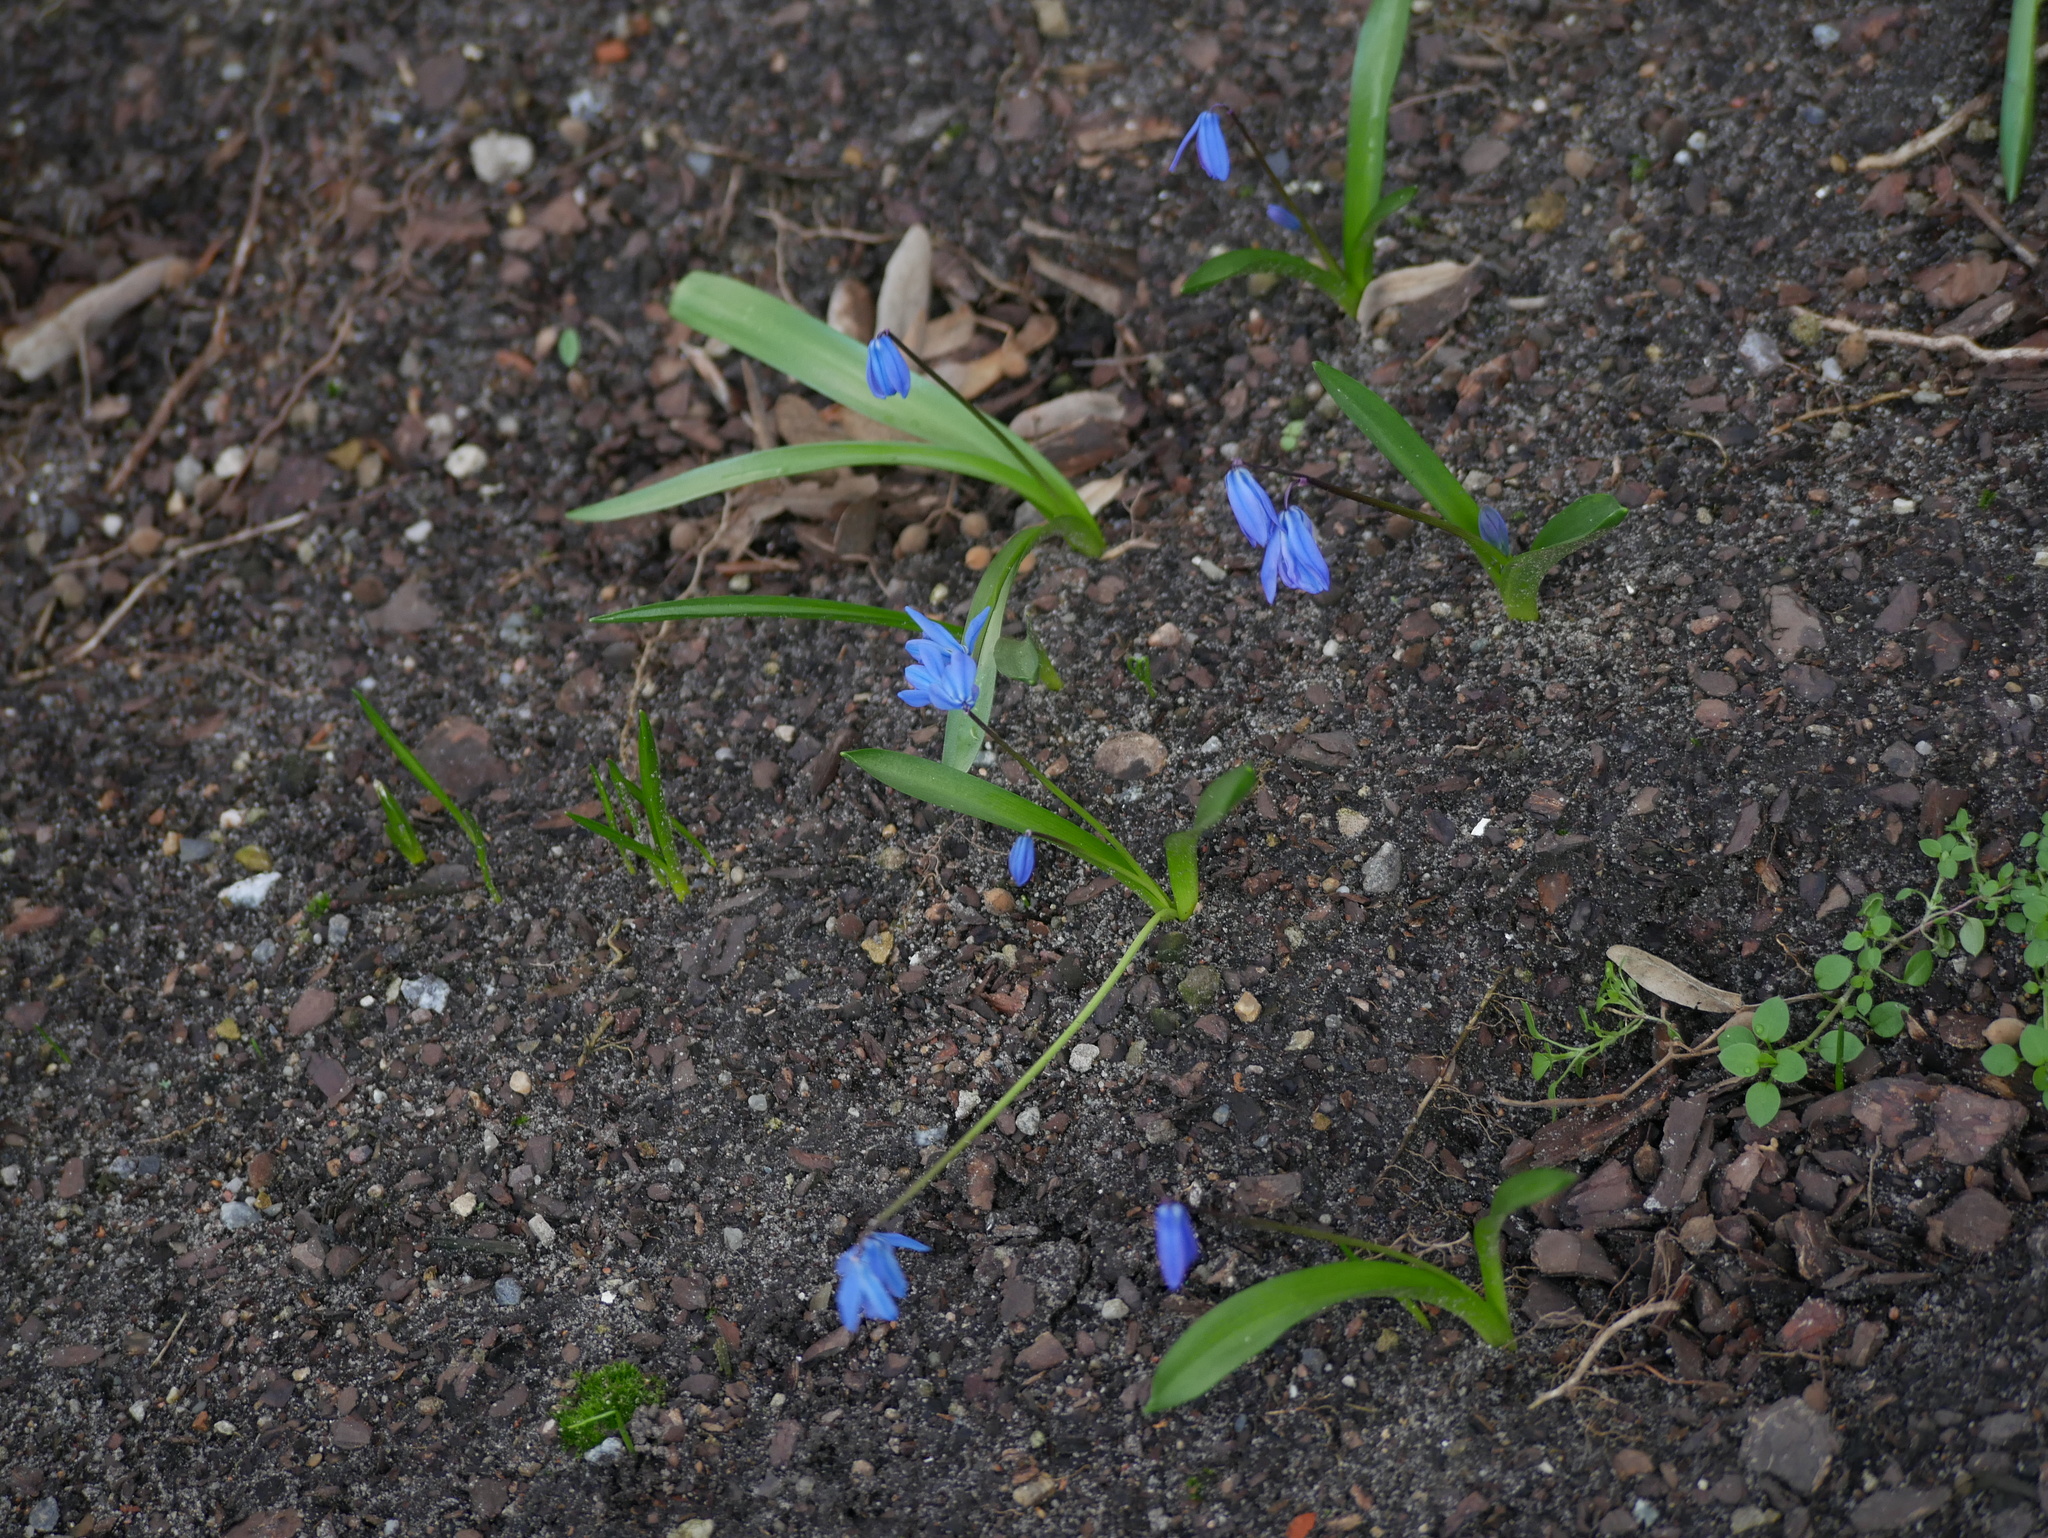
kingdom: Plantae
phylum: Tracheophyta
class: Liliopsida
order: Asparagales
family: Asparagaceae
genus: Scilla
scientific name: Scilla siberica
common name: Siberian squill
